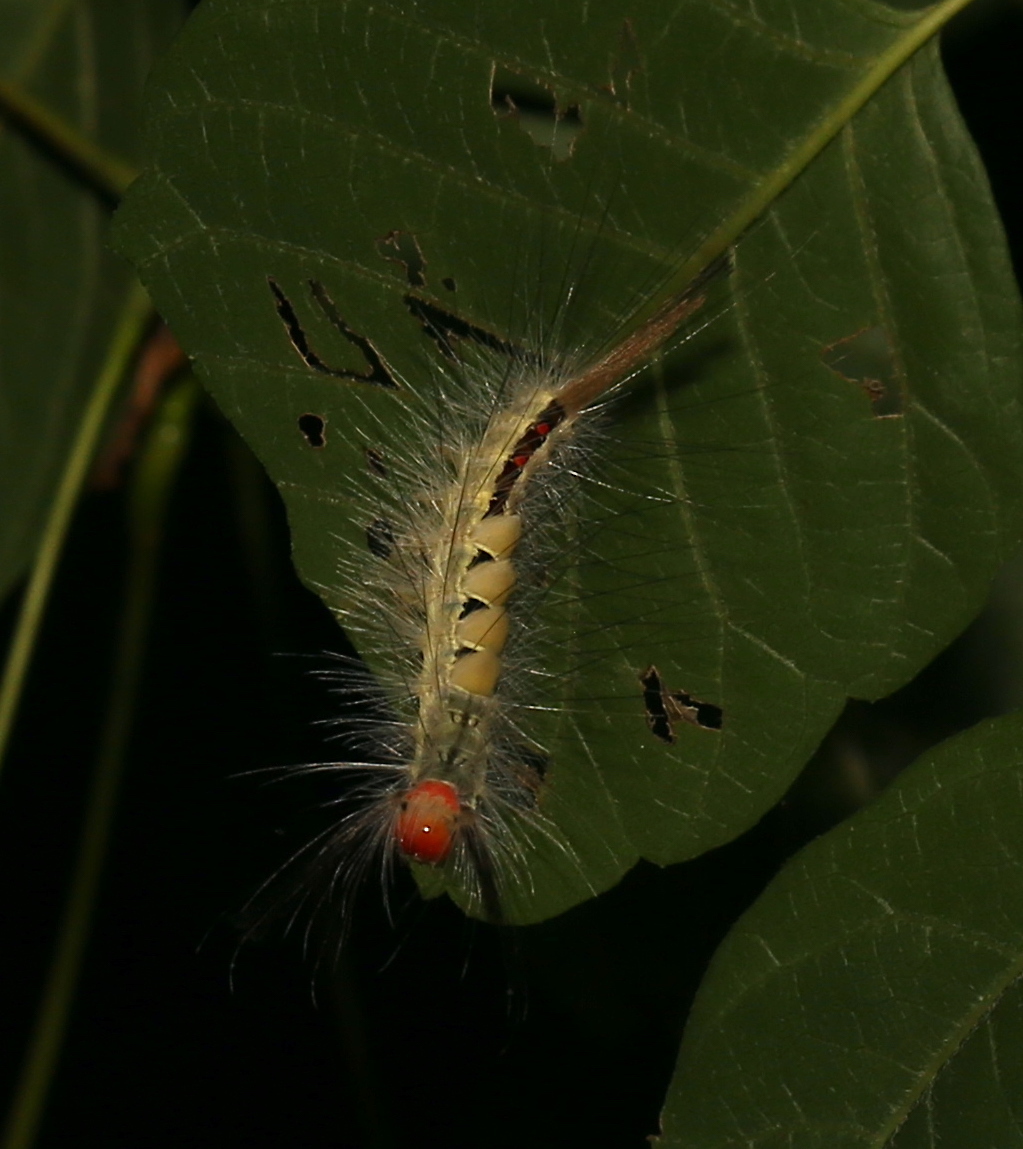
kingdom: Animalia
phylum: Arthropoda
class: Insecta
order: Lepidoptera
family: Erebidae
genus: Orgyia
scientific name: Orgyia leucostigma
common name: White-marked tussock moth
